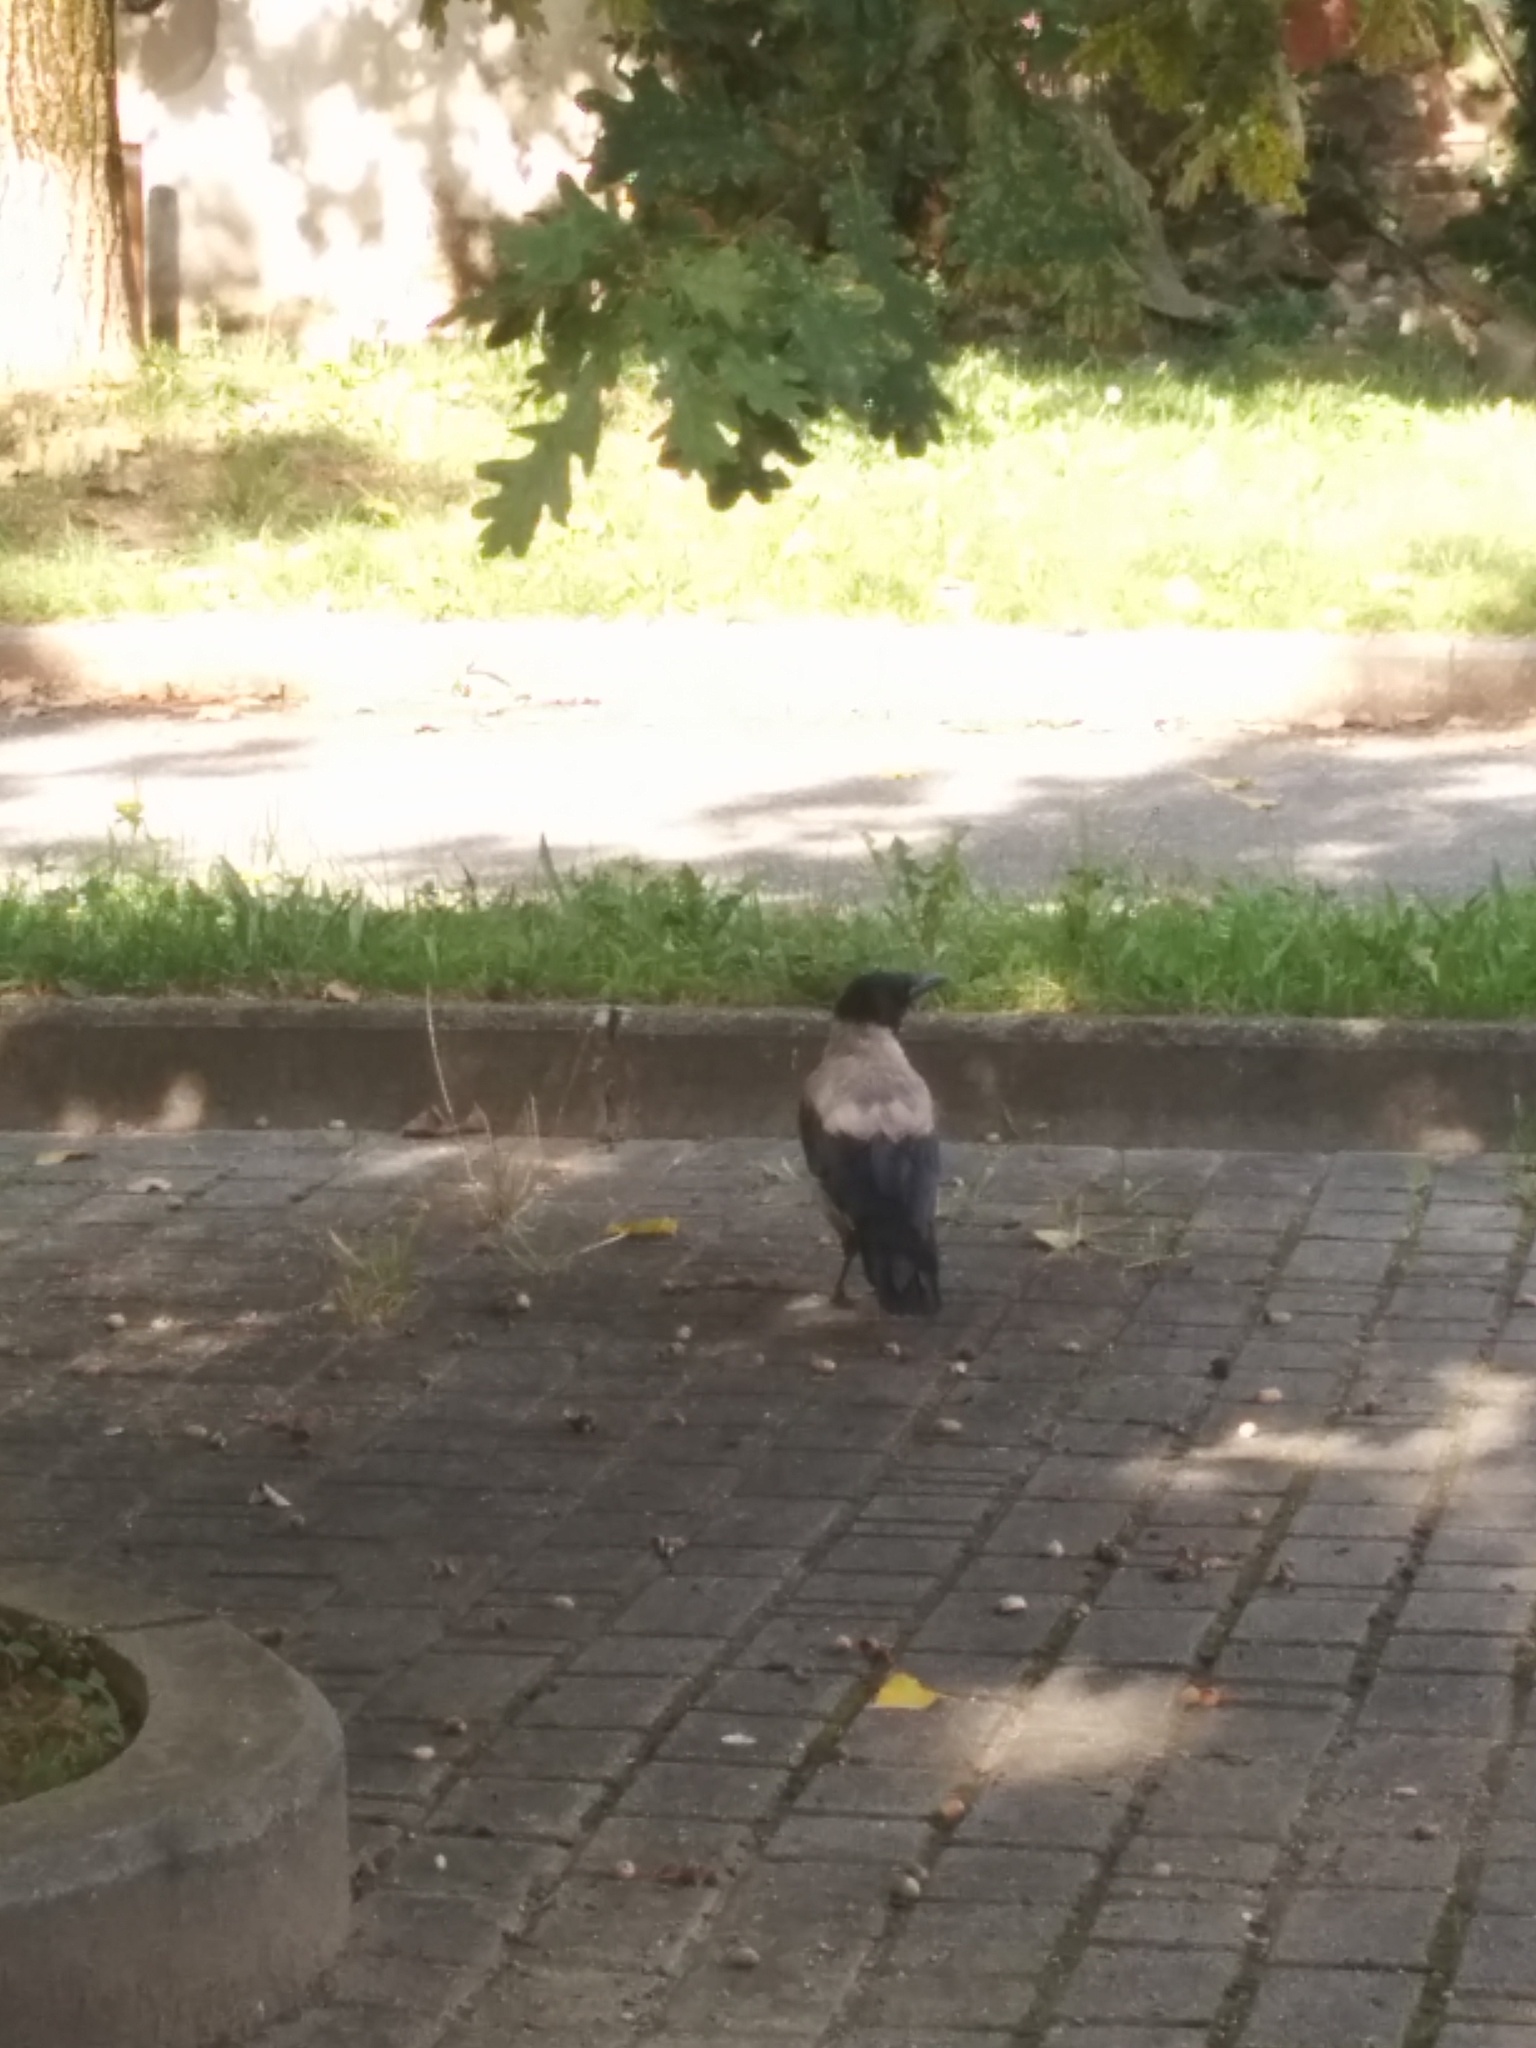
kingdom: Animalia
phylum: Chordata
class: Aves
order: Passeriformes
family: Corvidae
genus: Corvus
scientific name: Corvus cornix
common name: Hooded crow
